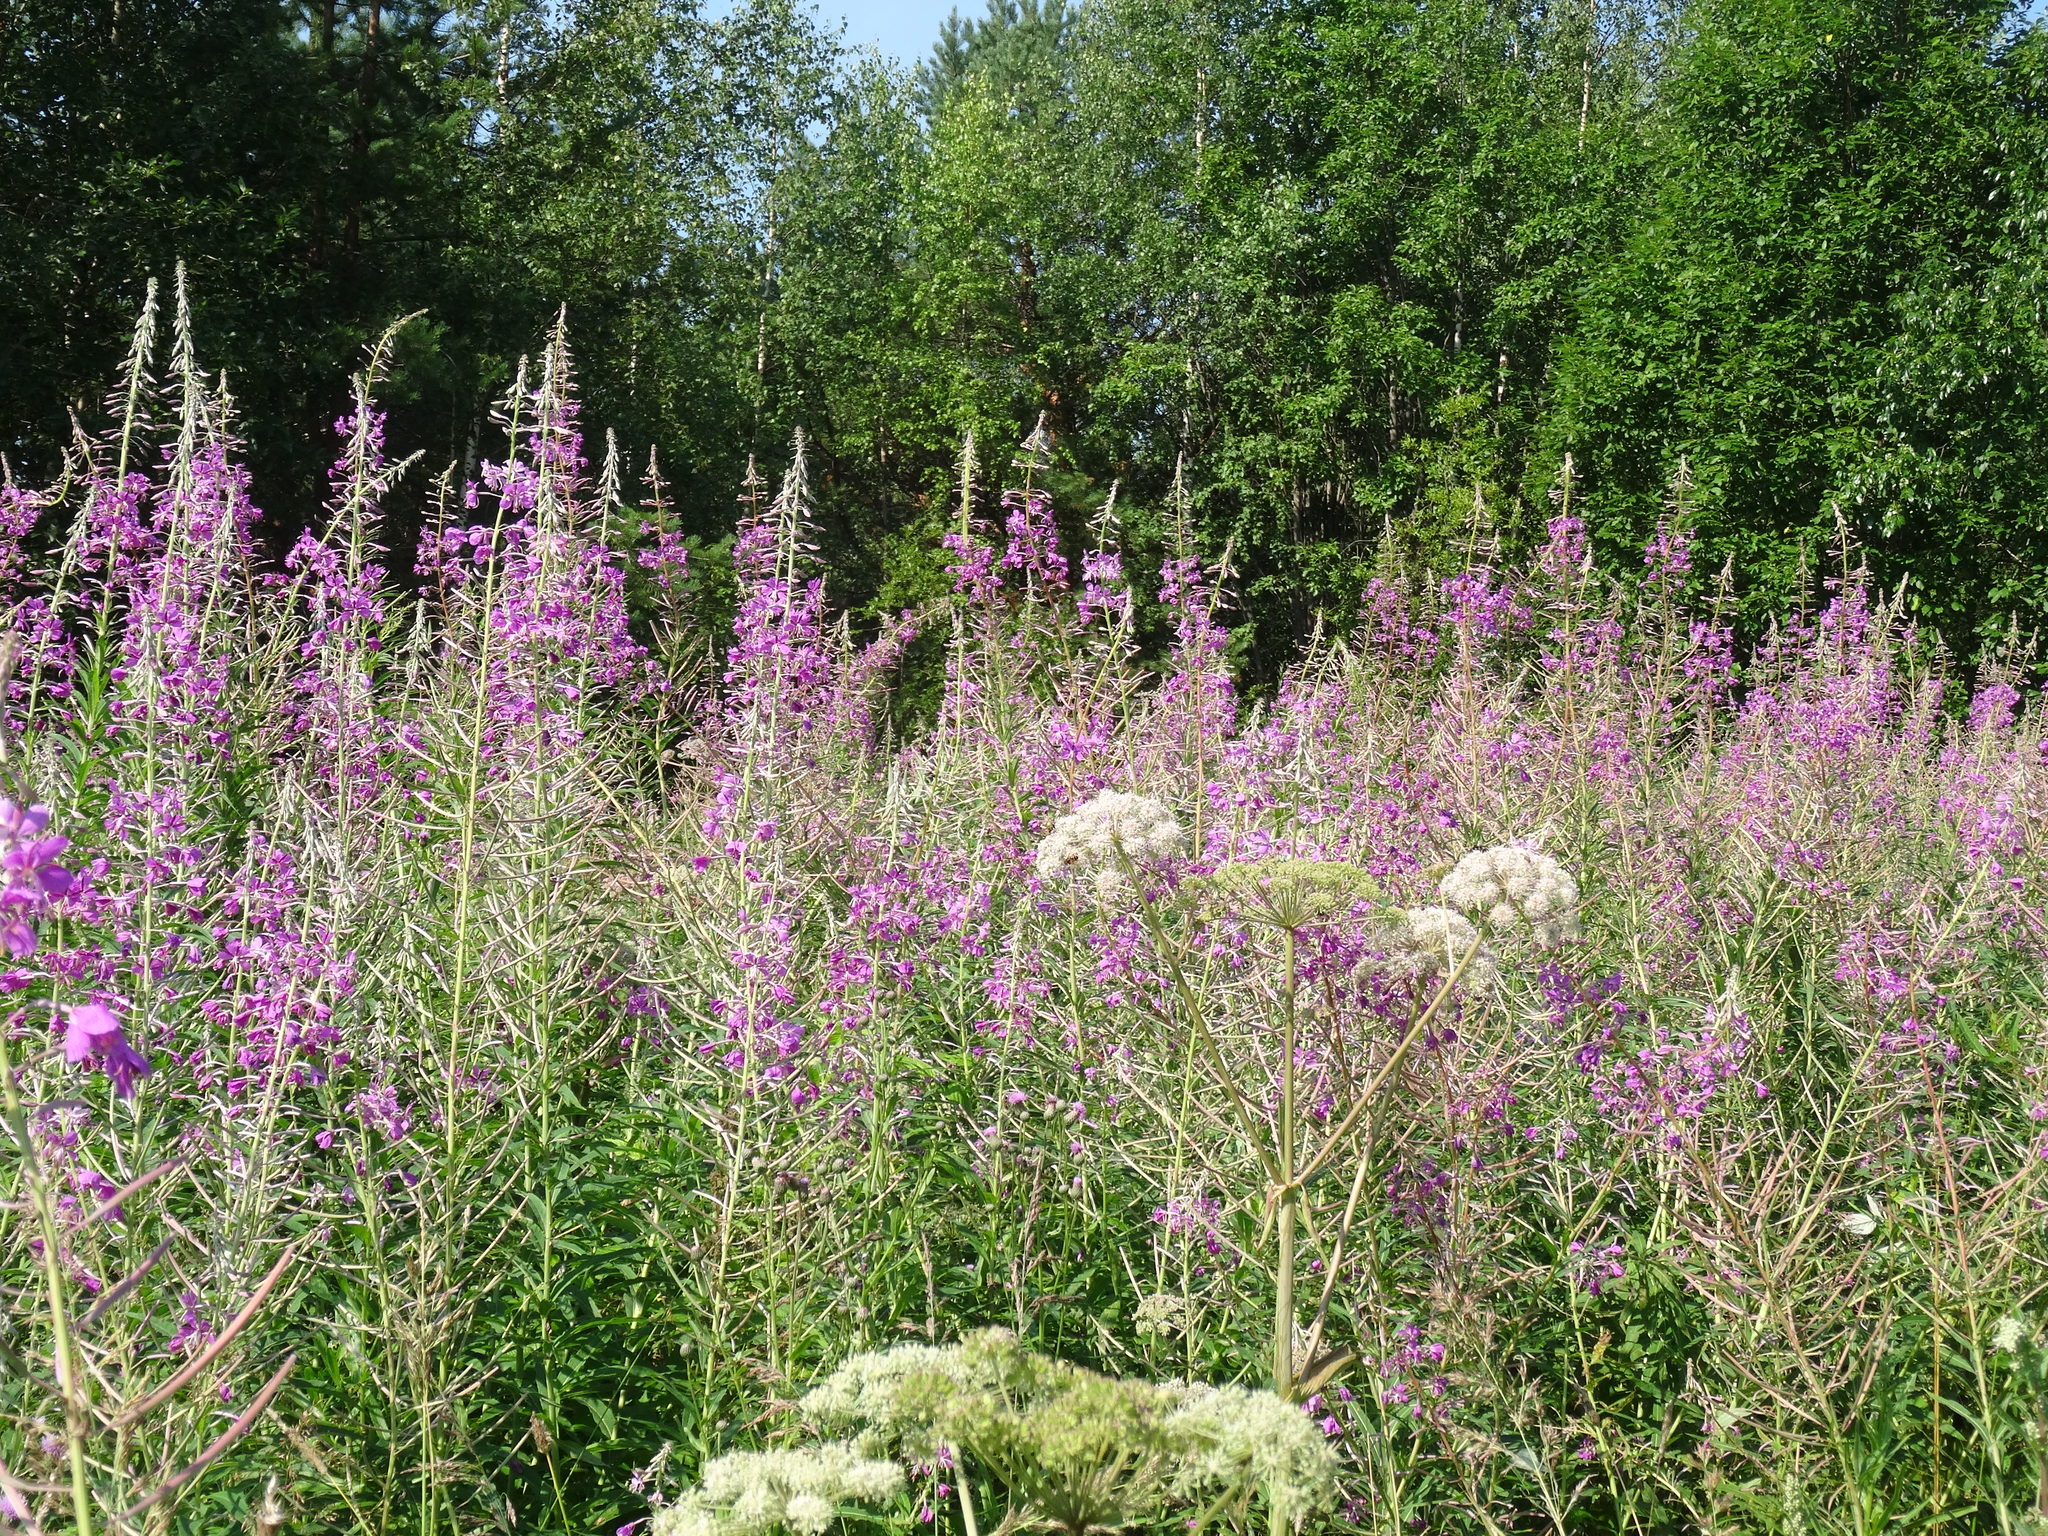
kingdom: Plantae
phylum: Tracheophyta
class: Magnoliopsida
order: Myrtales
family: Onagraceae
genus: Chamaenerion
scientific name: Chamaenerion angustifolium
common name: Fireweed
